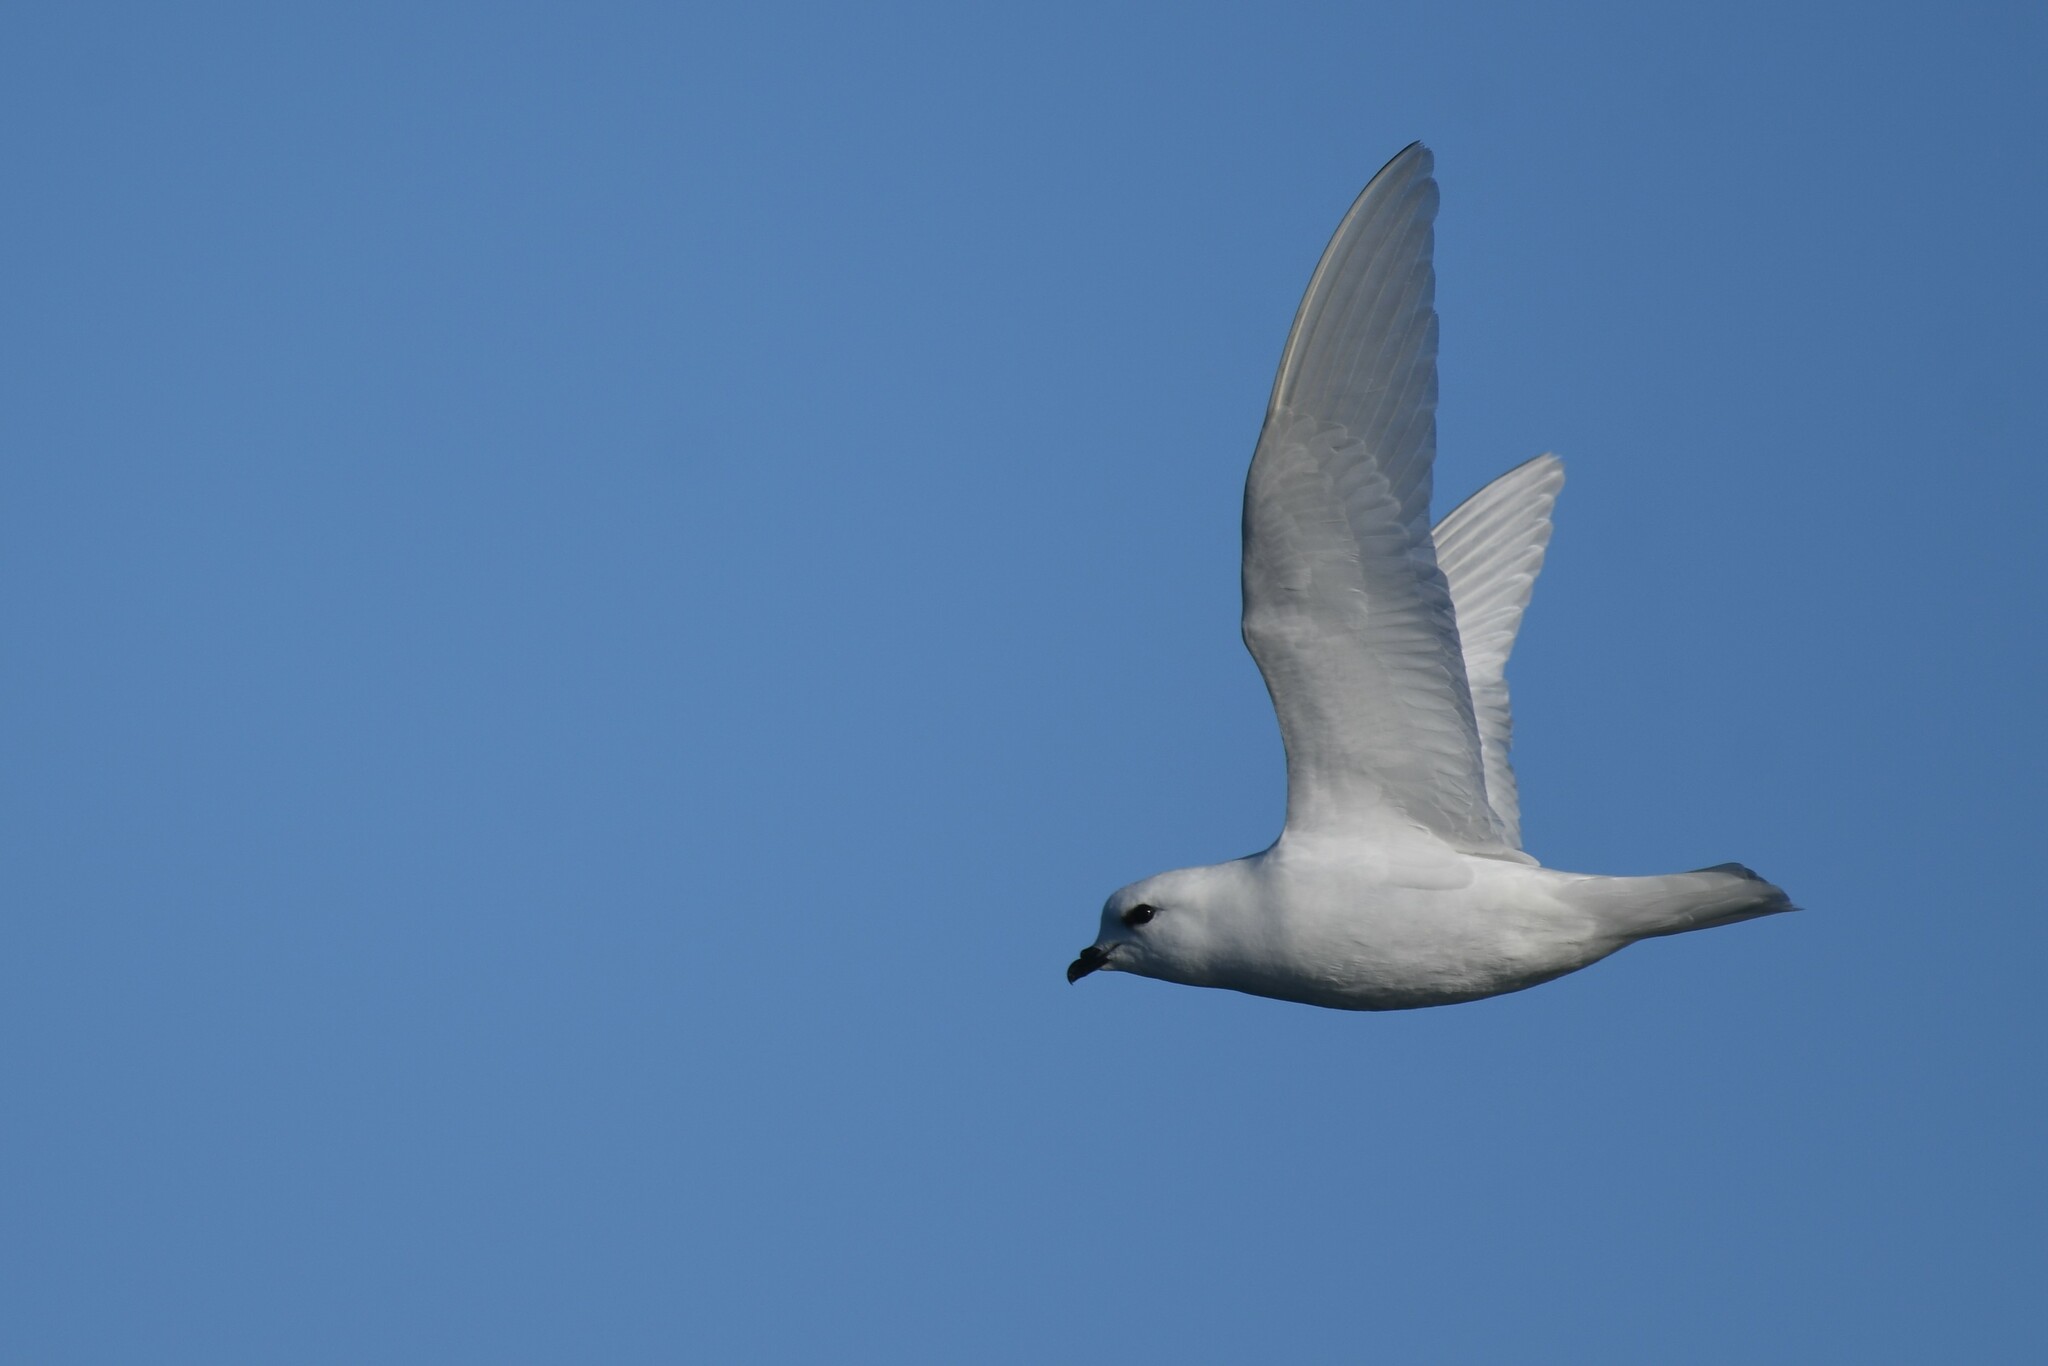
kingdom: Animalia
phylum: Chordata
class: Aves
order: Procellariiformes
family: Procellariidae
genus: Pagodroma
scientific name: Pagodroma nivea
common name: Snow petrel
